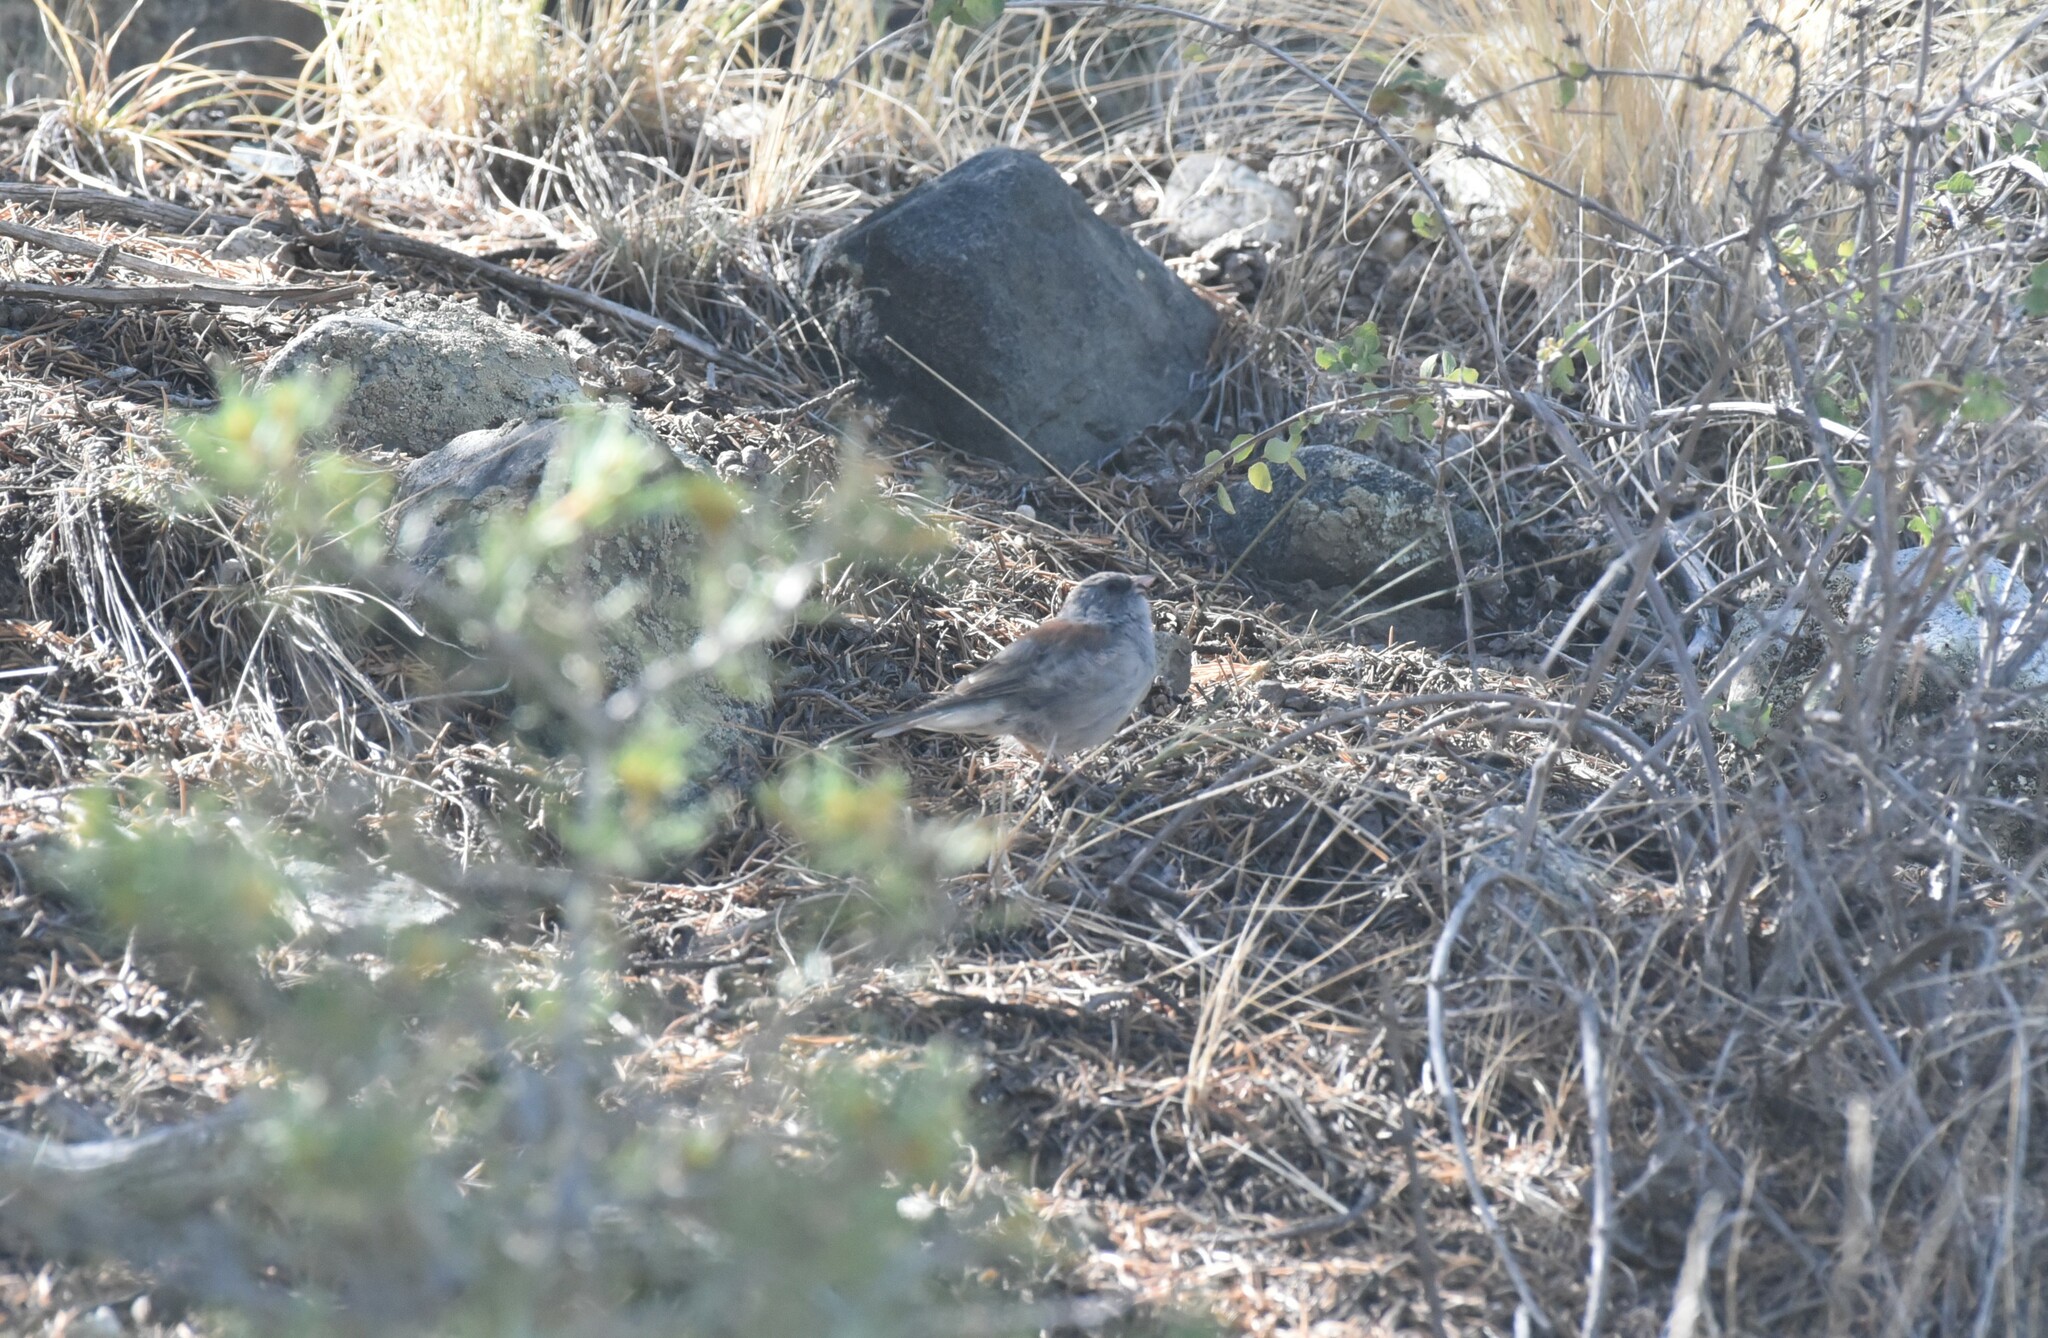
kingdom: Animalia
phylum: Chordata
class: Aves
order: Passeriformes
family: Passerellidae
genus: Junco
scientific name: Junco hyemalis
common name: Dark-eyed junco
